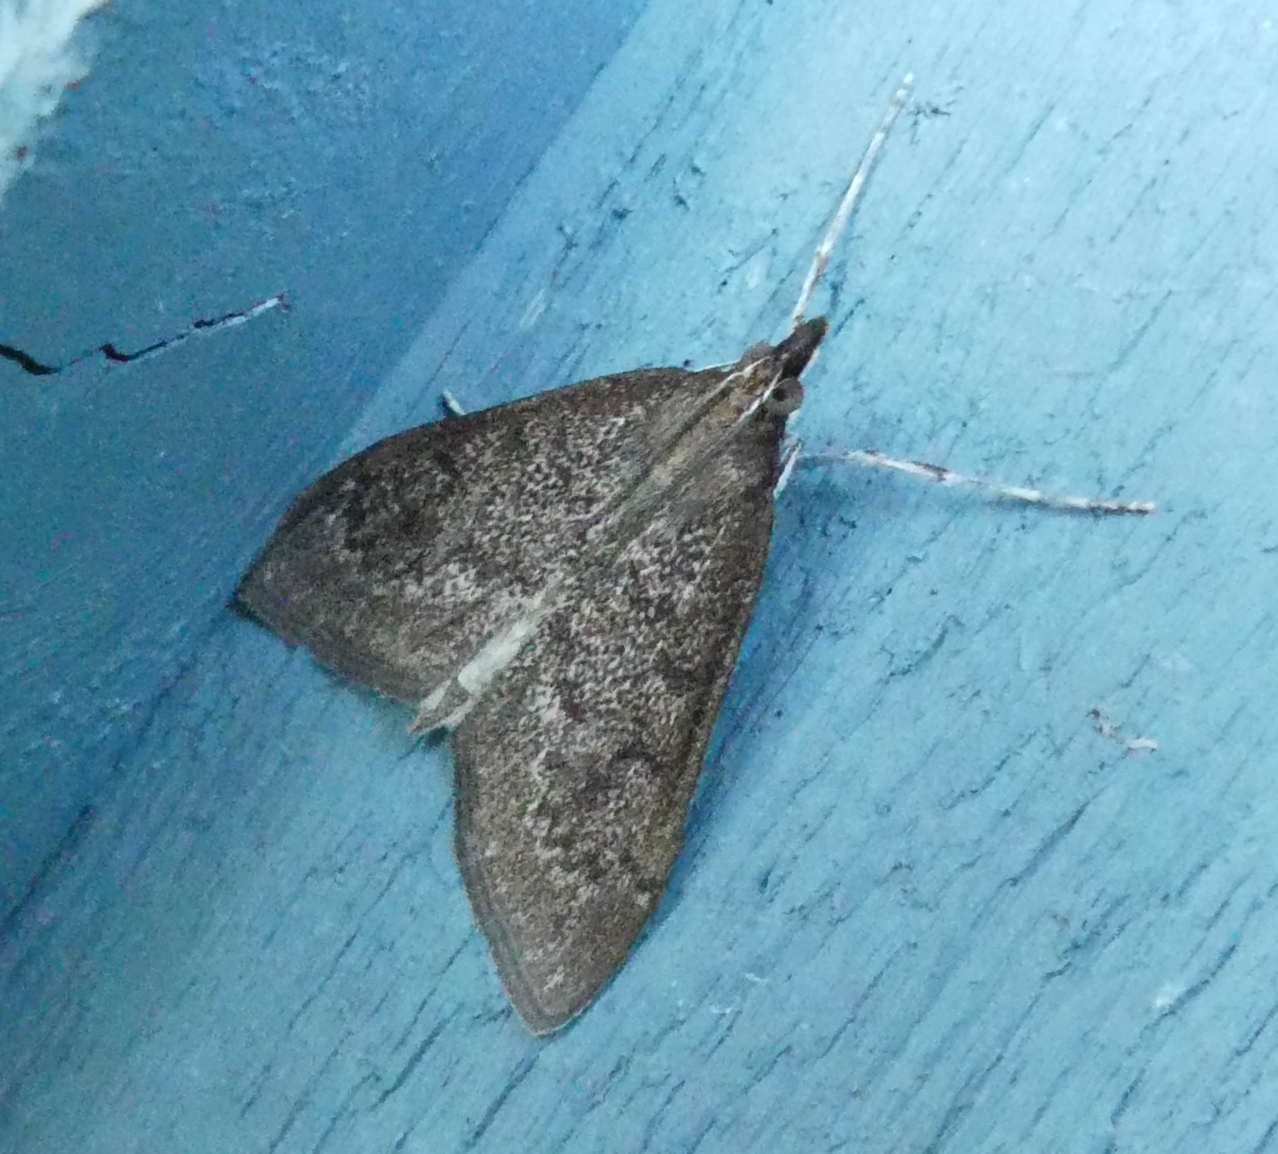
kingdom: Animalia
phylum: Arthropoda
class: Insecta
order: Lepidoptera
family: Crambidae
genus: Saucrobotys
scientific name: Saucrobotys futilalis
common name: Dogbane saucrobotys moth
